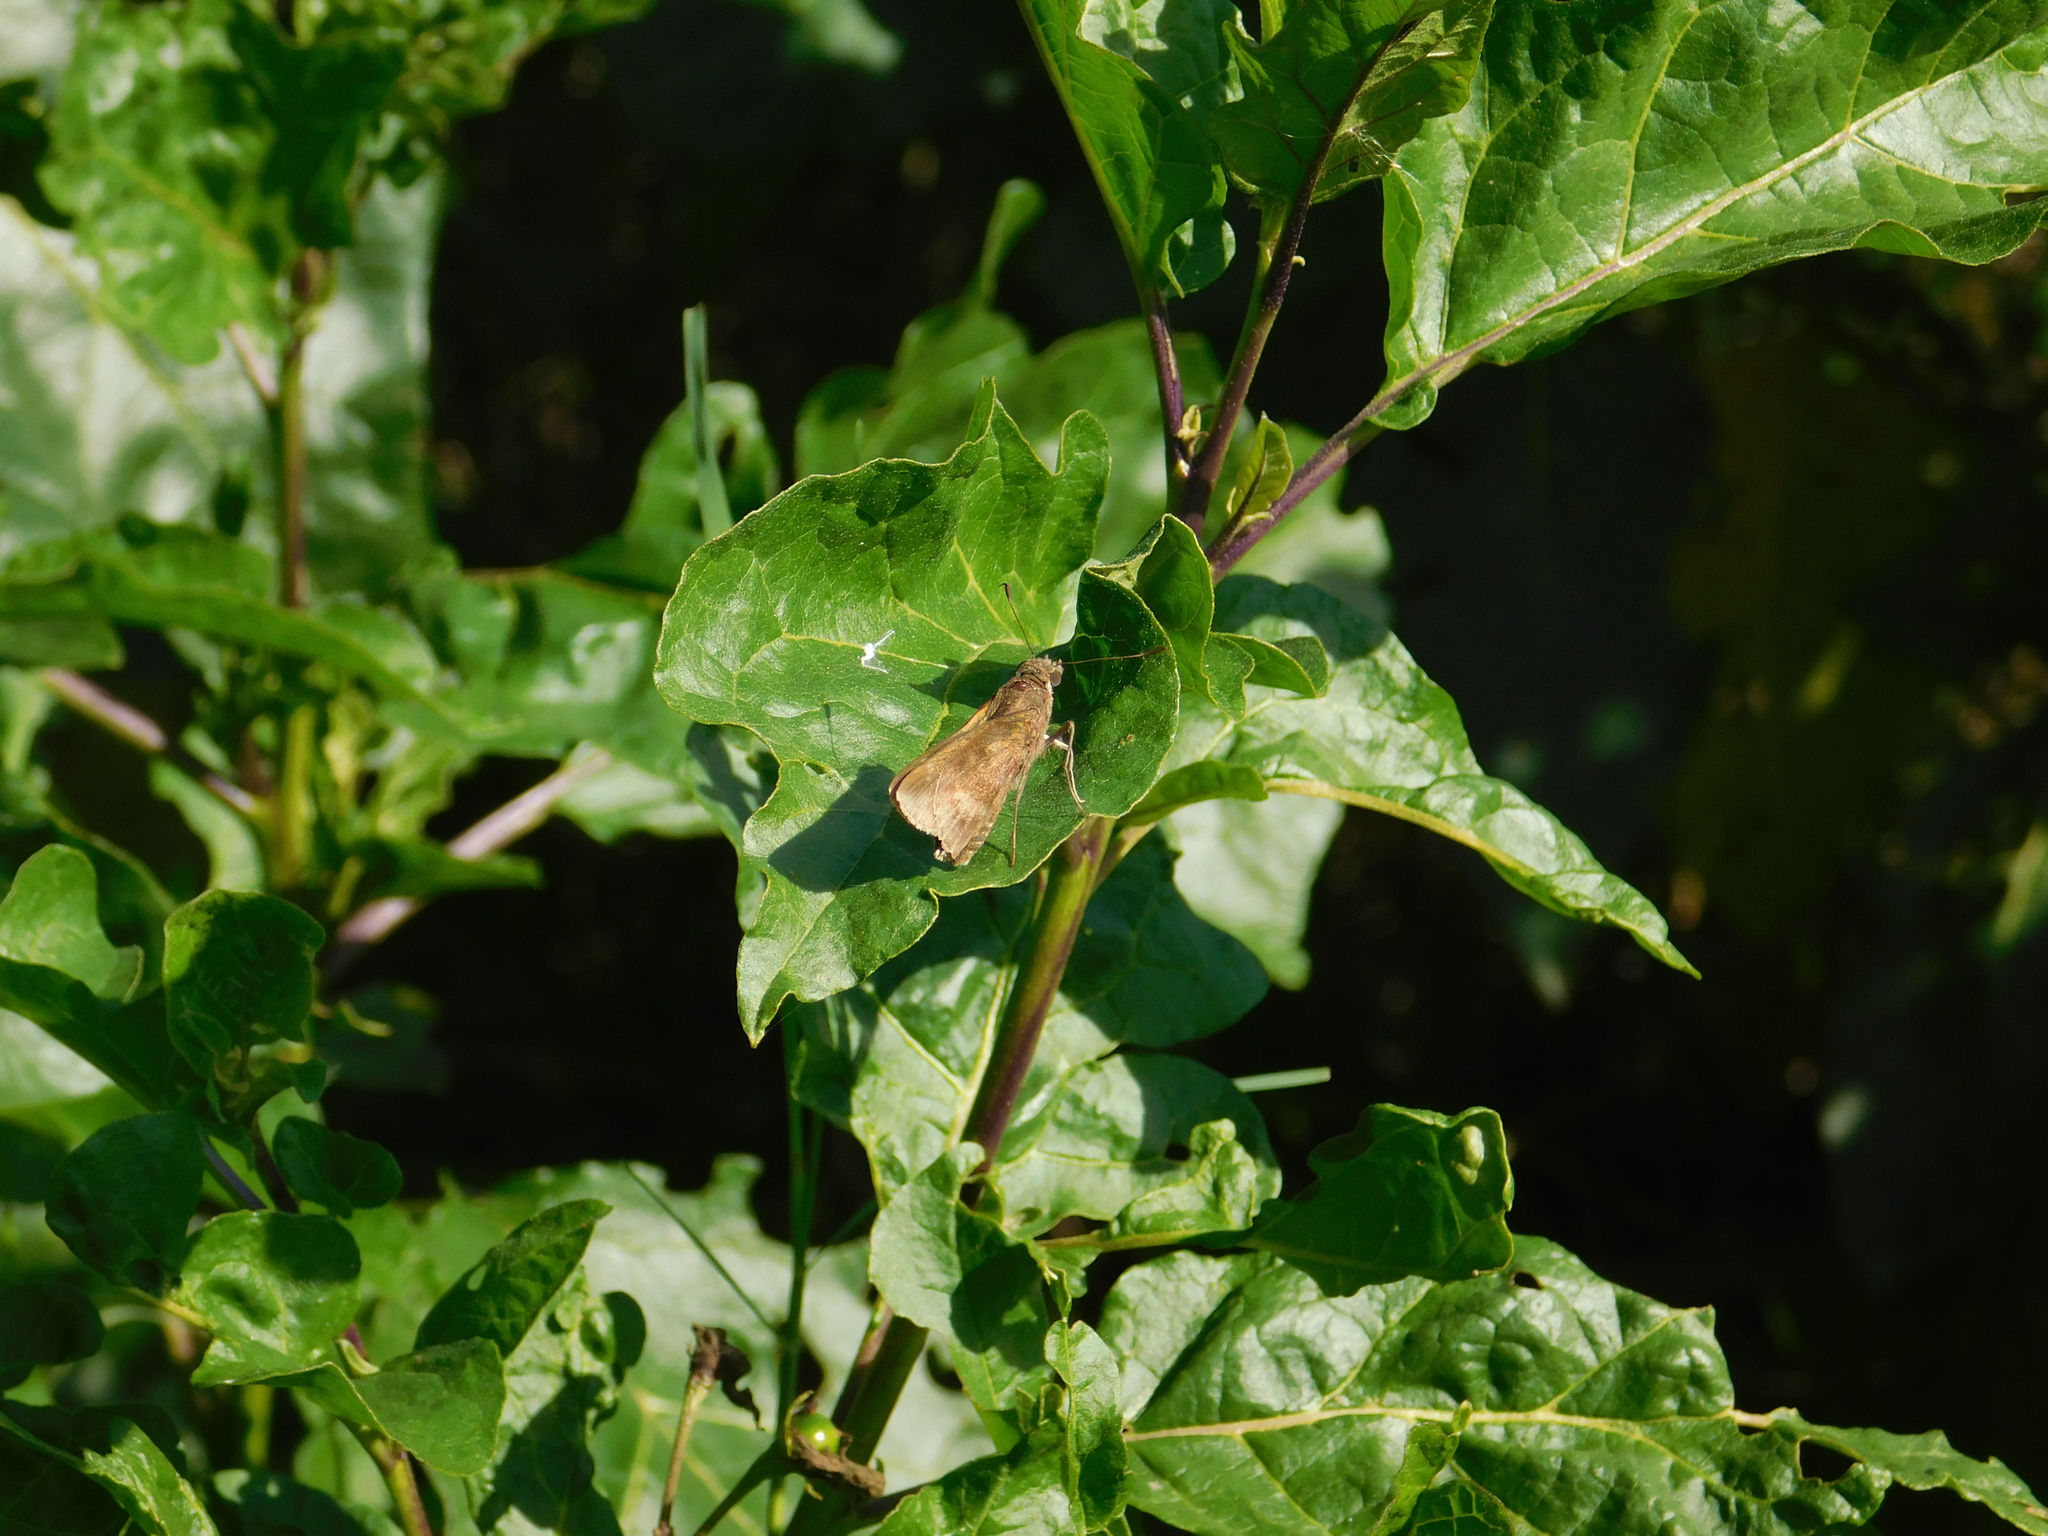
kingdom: Animalia
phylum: Arthropoda
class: Insecta
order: Lepidoptera
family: Hesperiidae
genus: Quinta
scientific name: Quinta cannae
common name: Canna skipper
